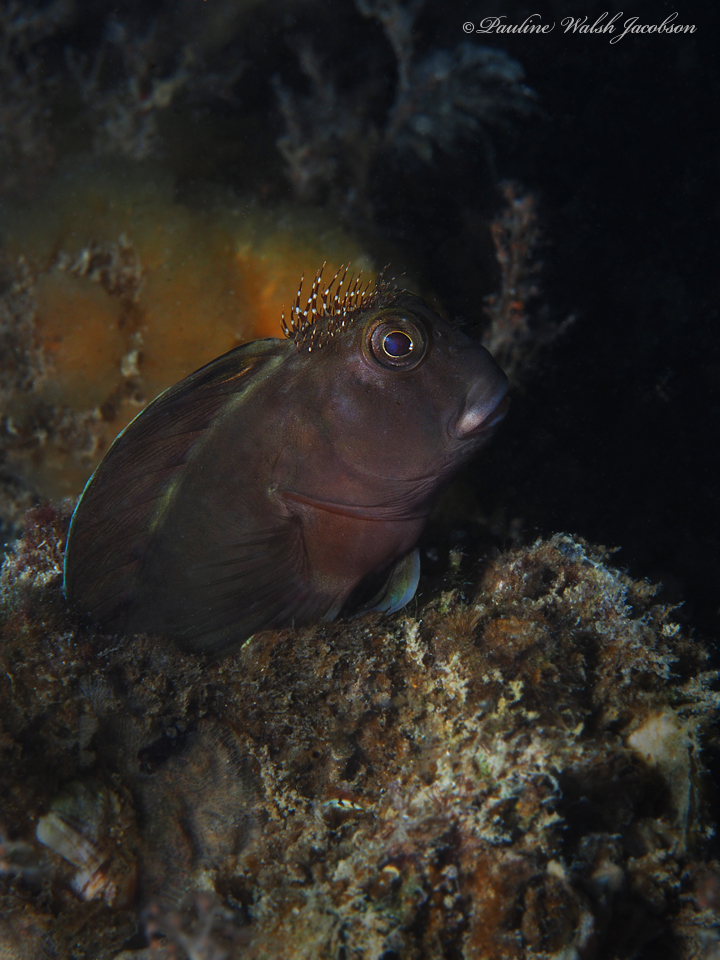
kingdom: Animalia
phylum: Chordata
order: Perciformes
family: Blenniidae
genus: Scartella
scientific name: Scartella cristata
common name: Molly miller
